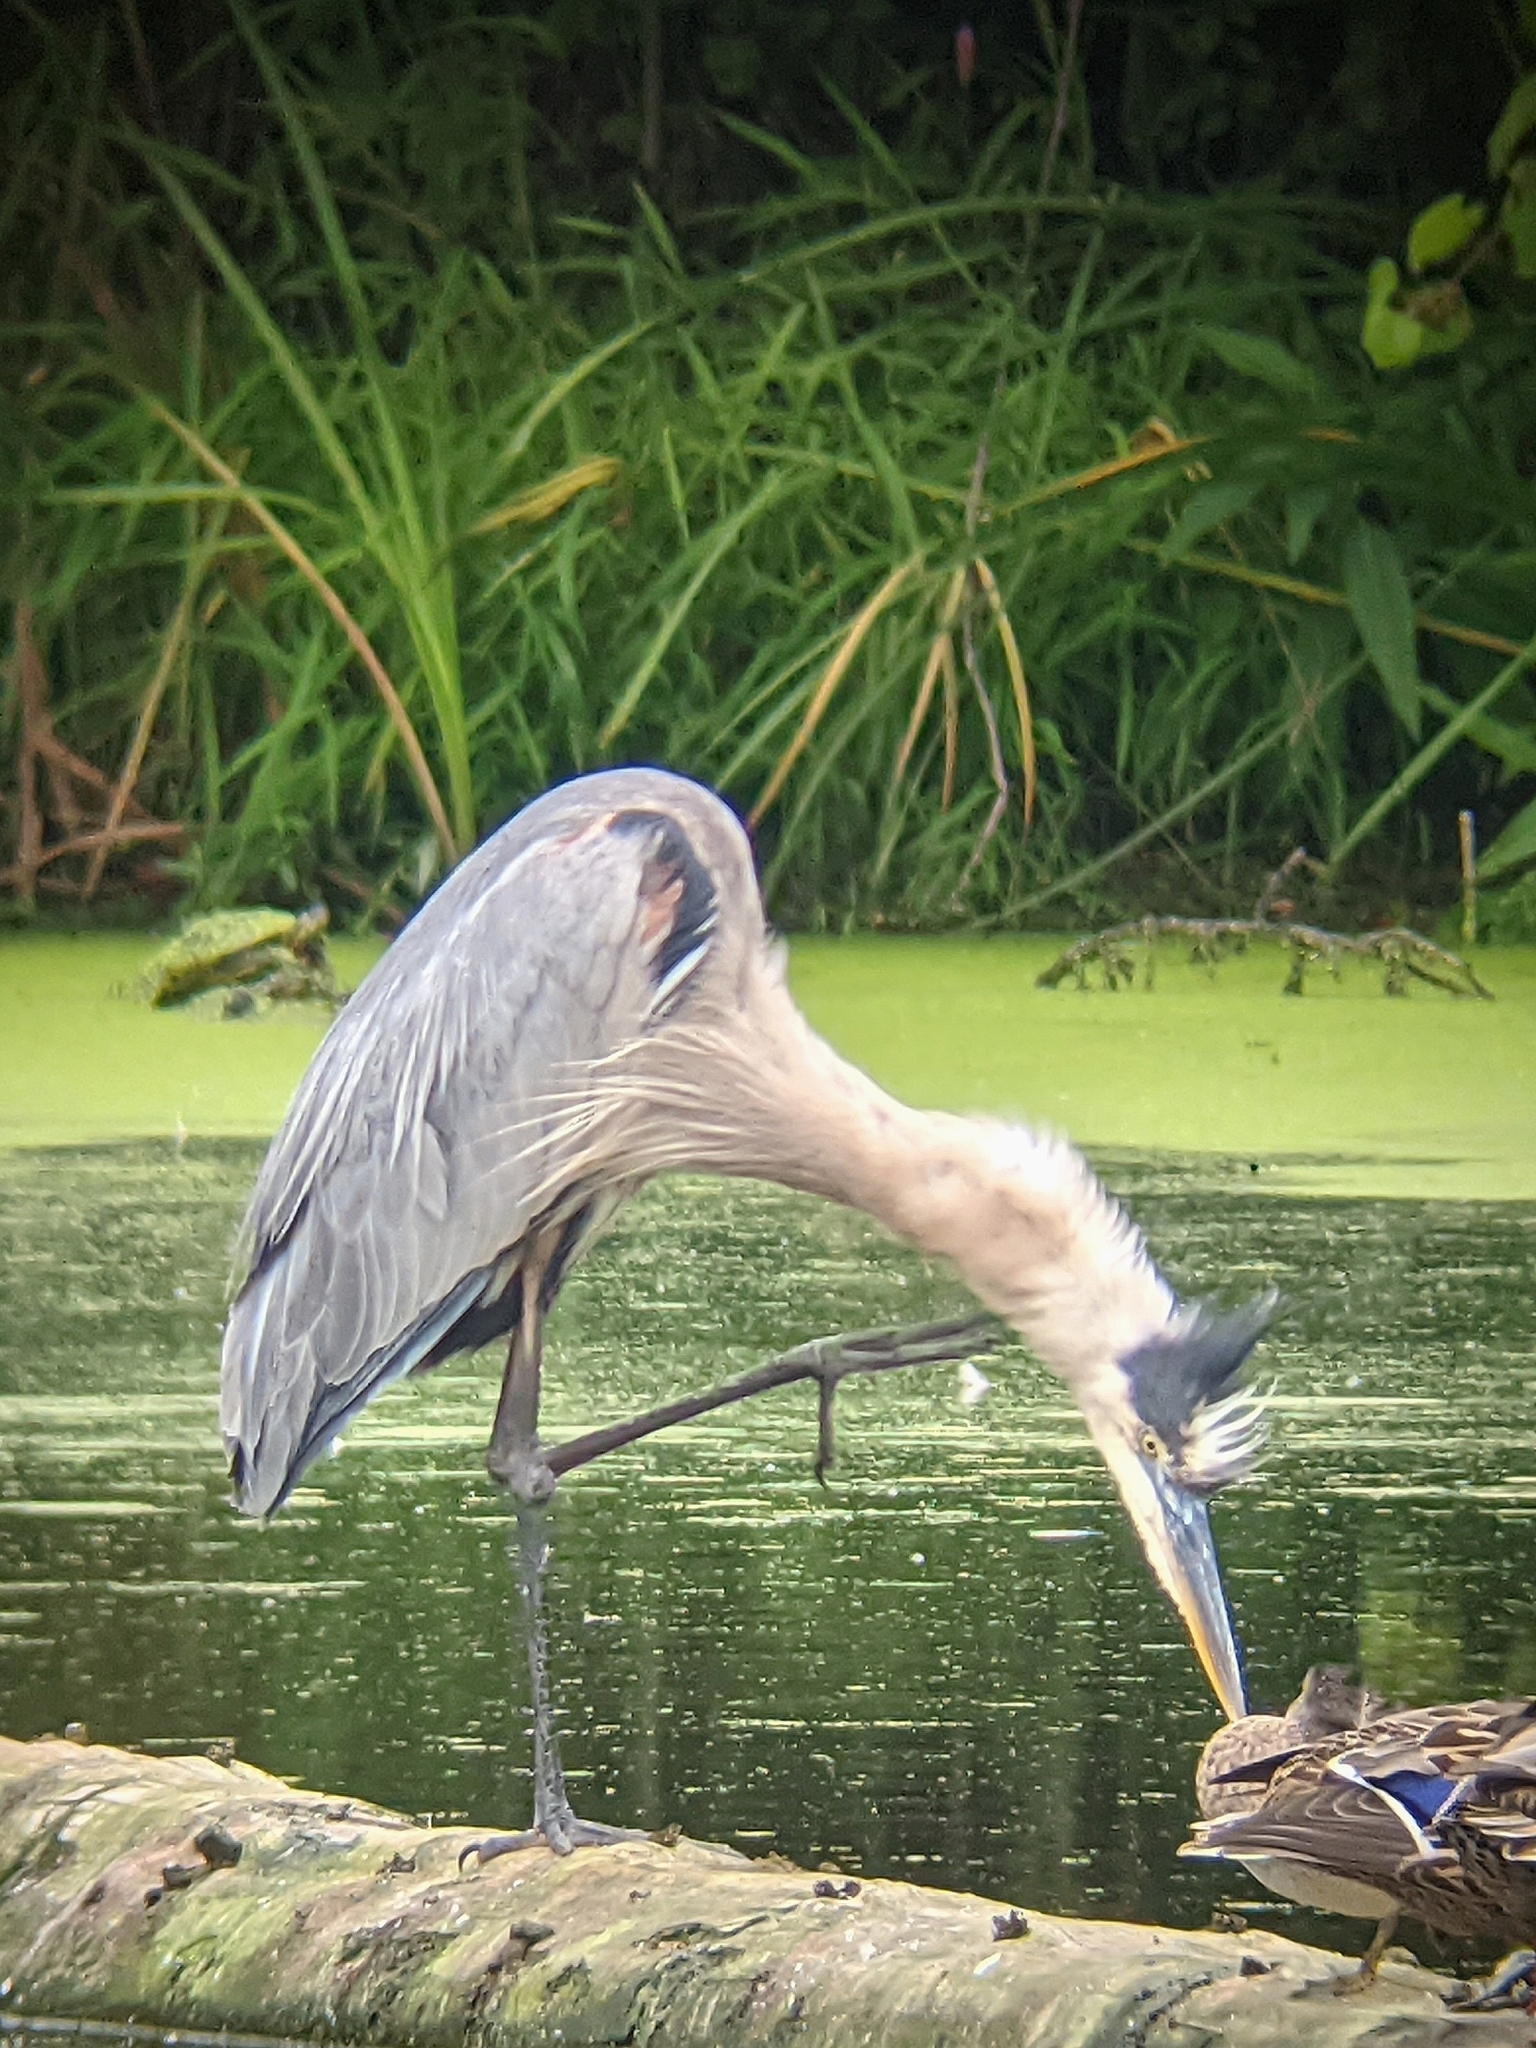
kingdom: Animalia
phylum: Chordata
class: Aves
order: Pelecaniformes
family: Ardeidae
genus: Ardea
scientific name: Ardea herodias
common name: Great blue heron
